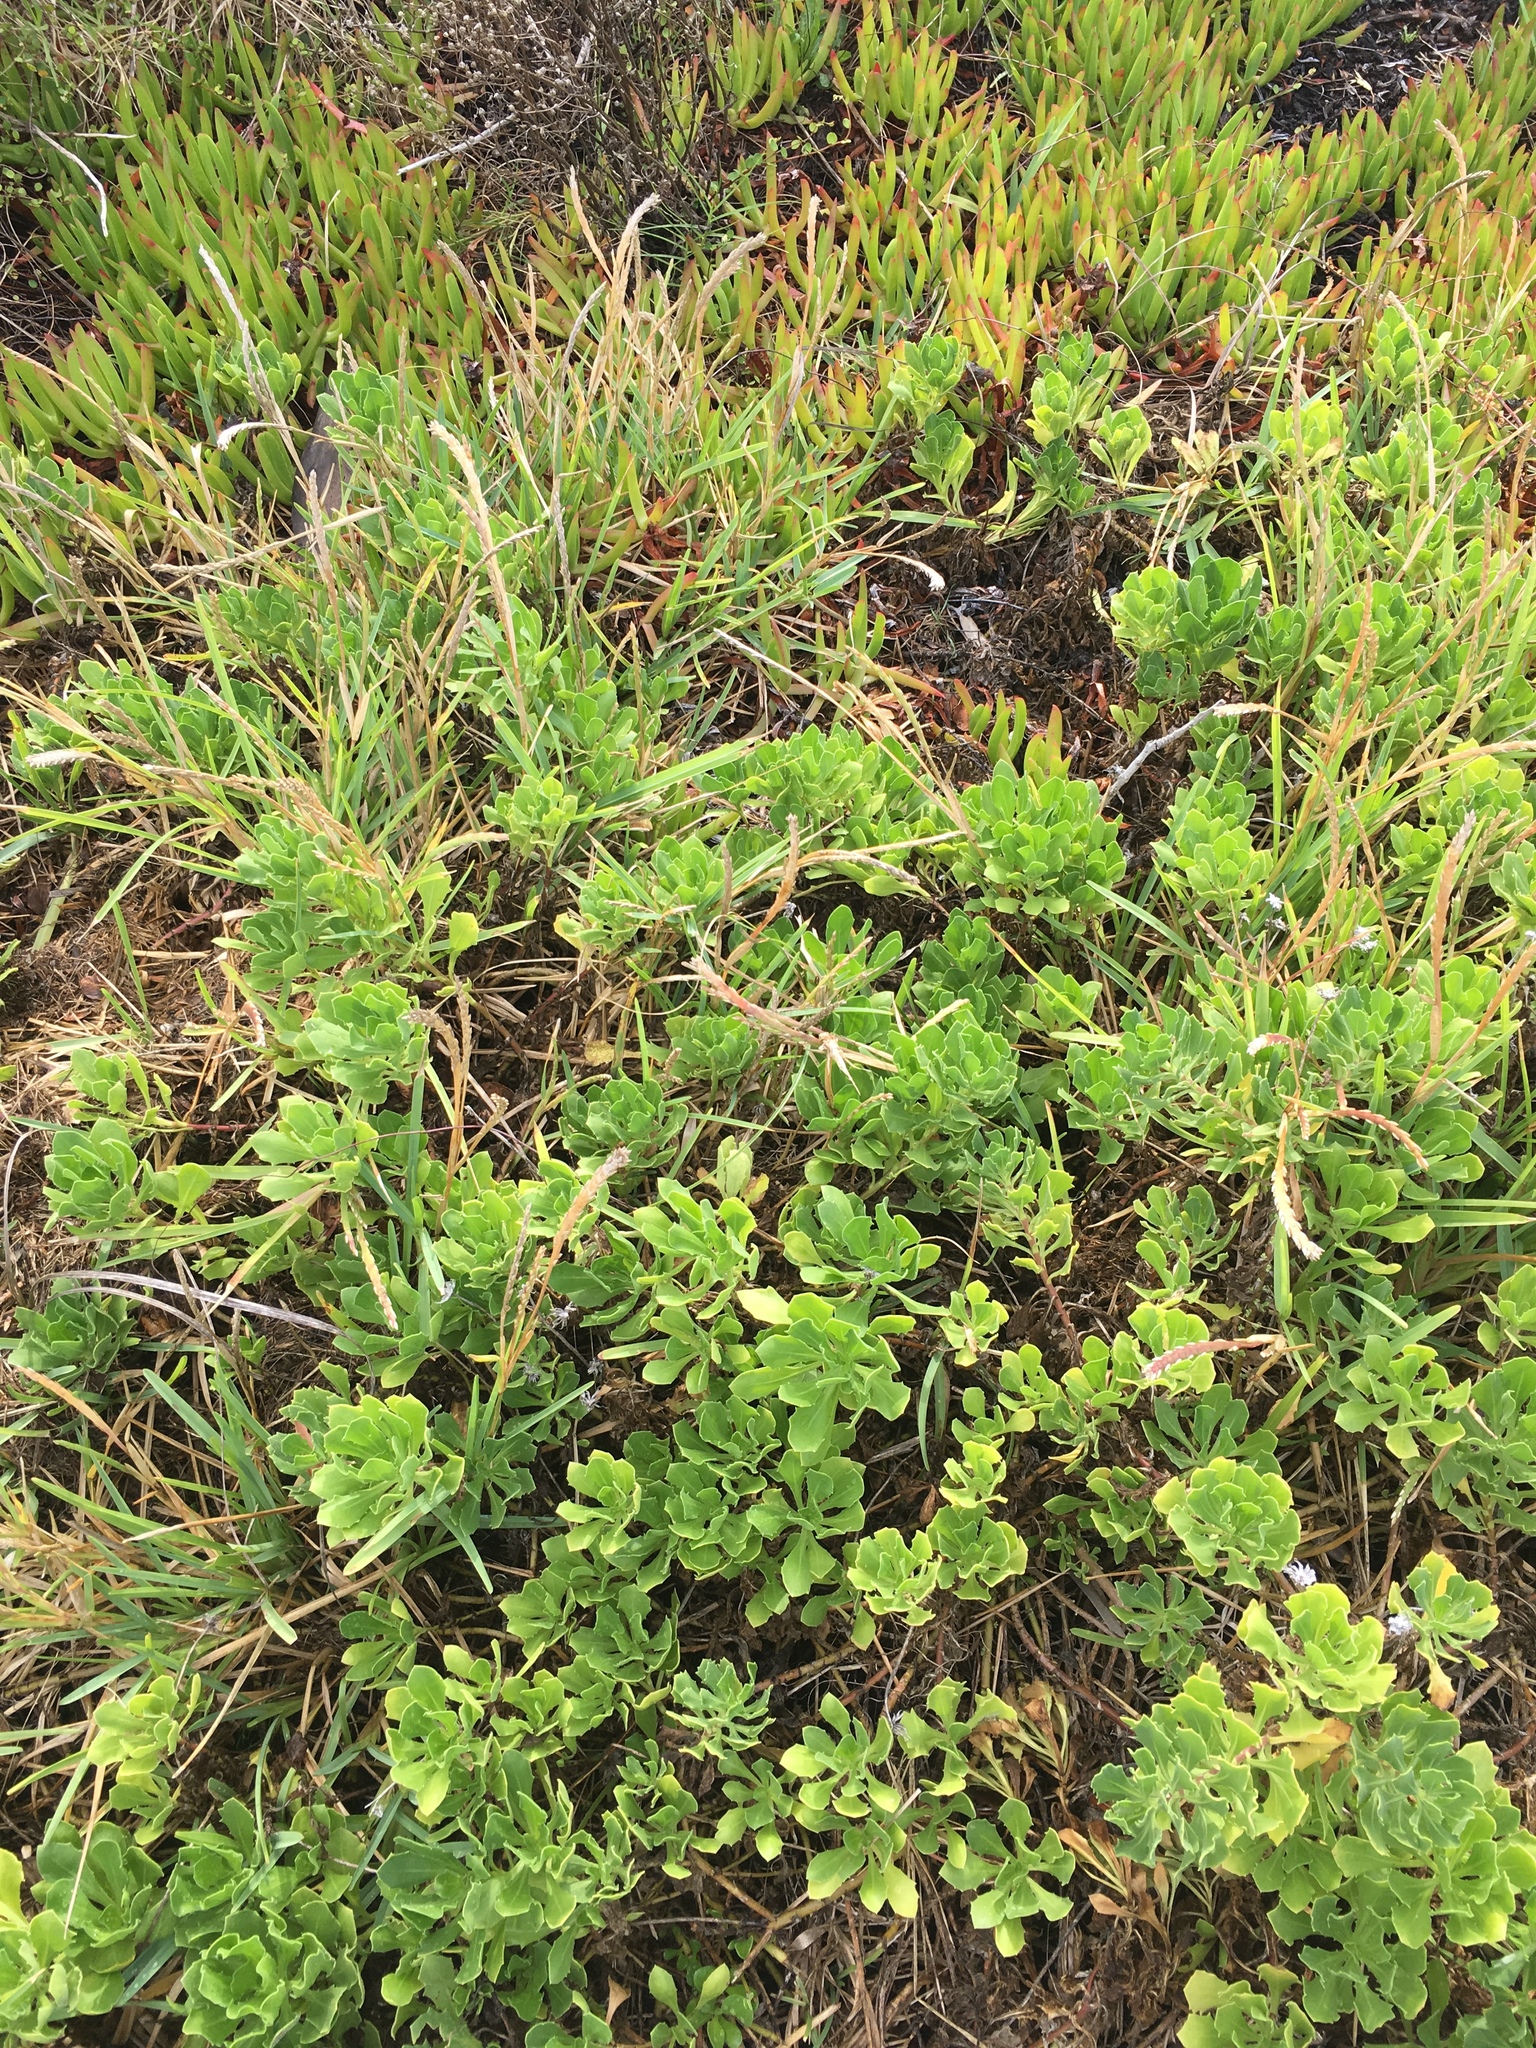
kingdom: Plantae
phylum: Tracheophyta
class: Magnoliopsida
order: Asterales
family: Asteraceae
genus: Dimorphotheca
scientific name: Dimorphotheca fruticosa
